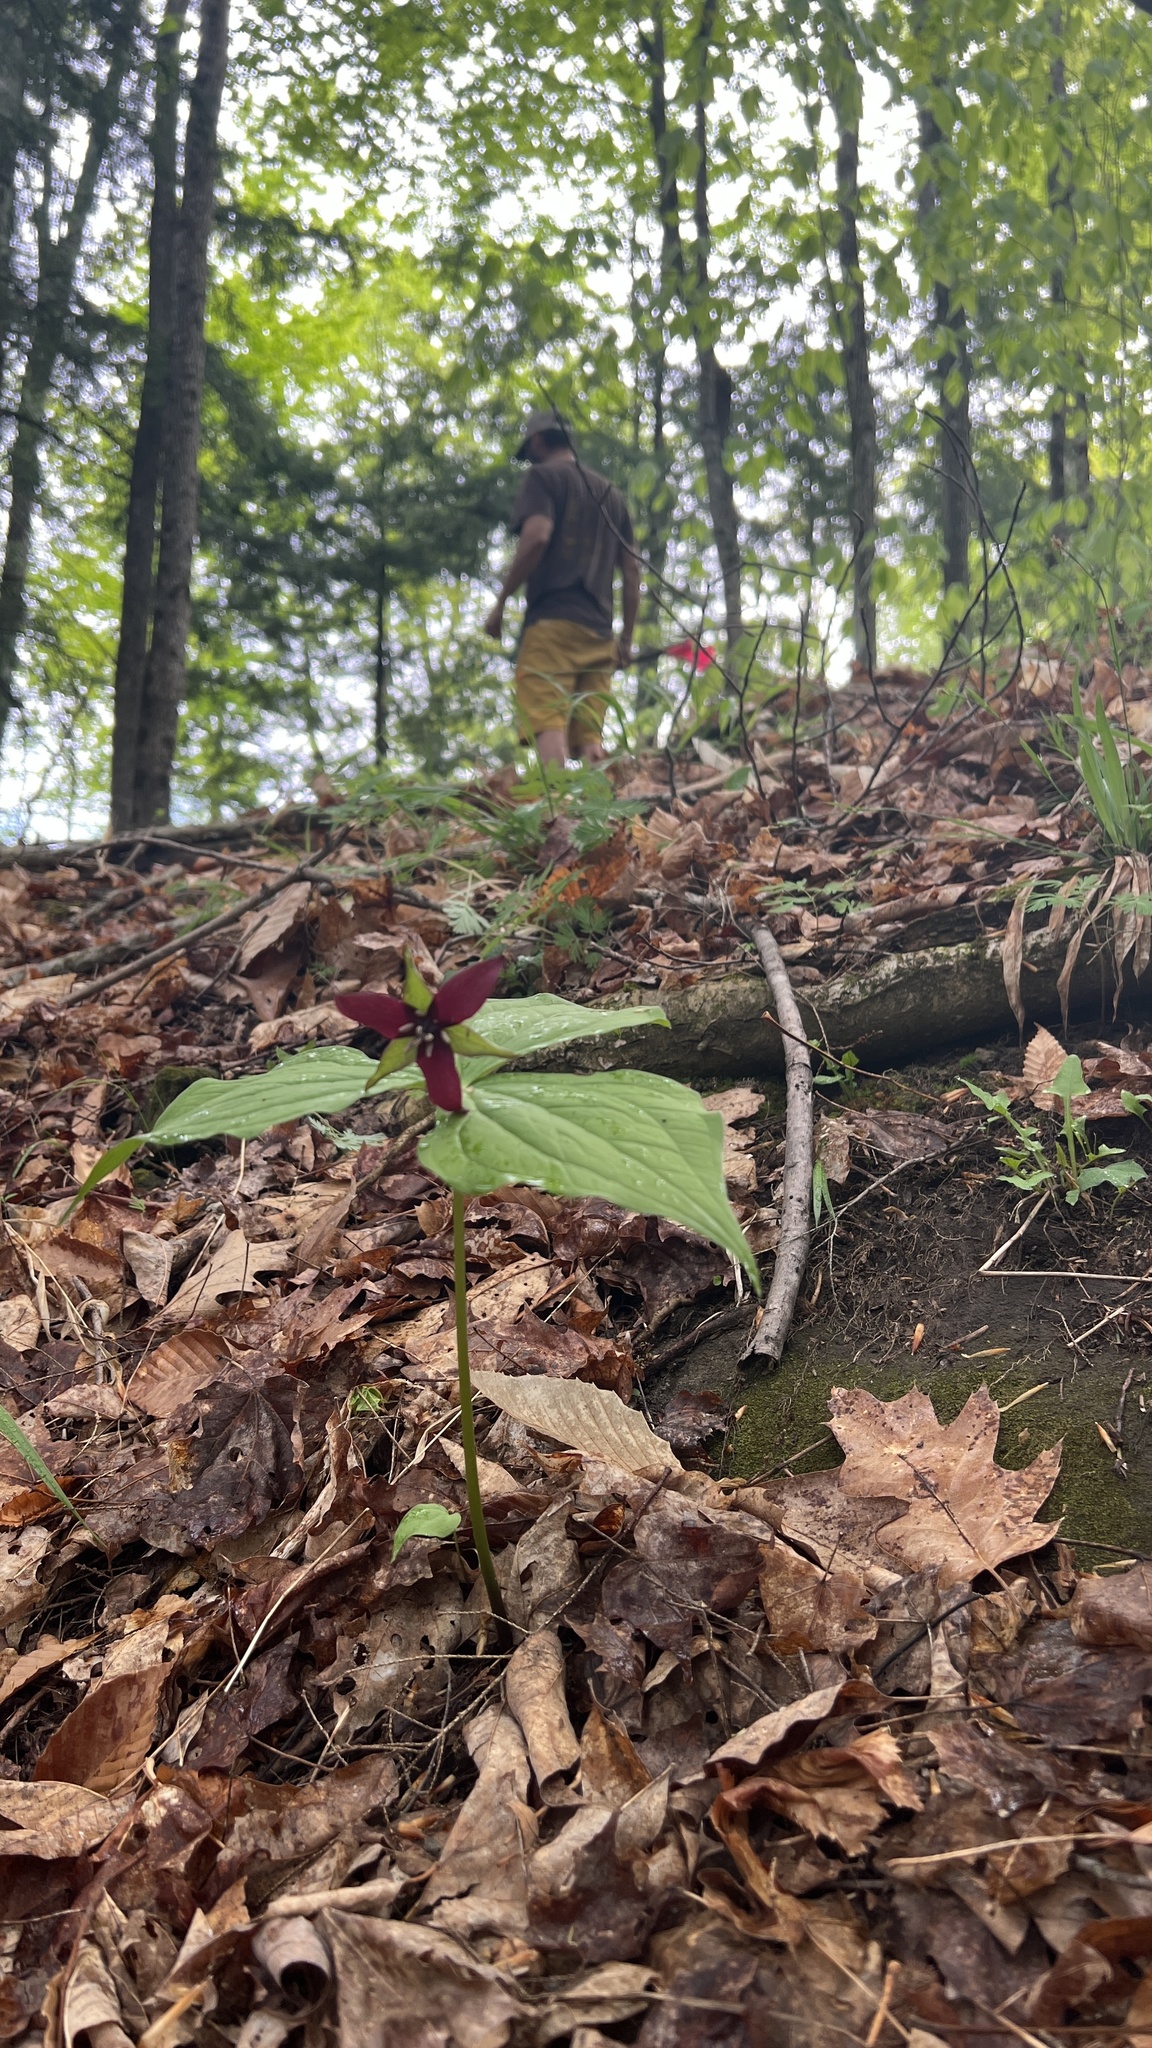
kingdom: Plantae
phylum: Tracheophyta
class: Liliopsida
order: Liliales
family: Melanthiaceae
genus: Trillium
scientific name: Trillium erectum
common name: Purple trillium
